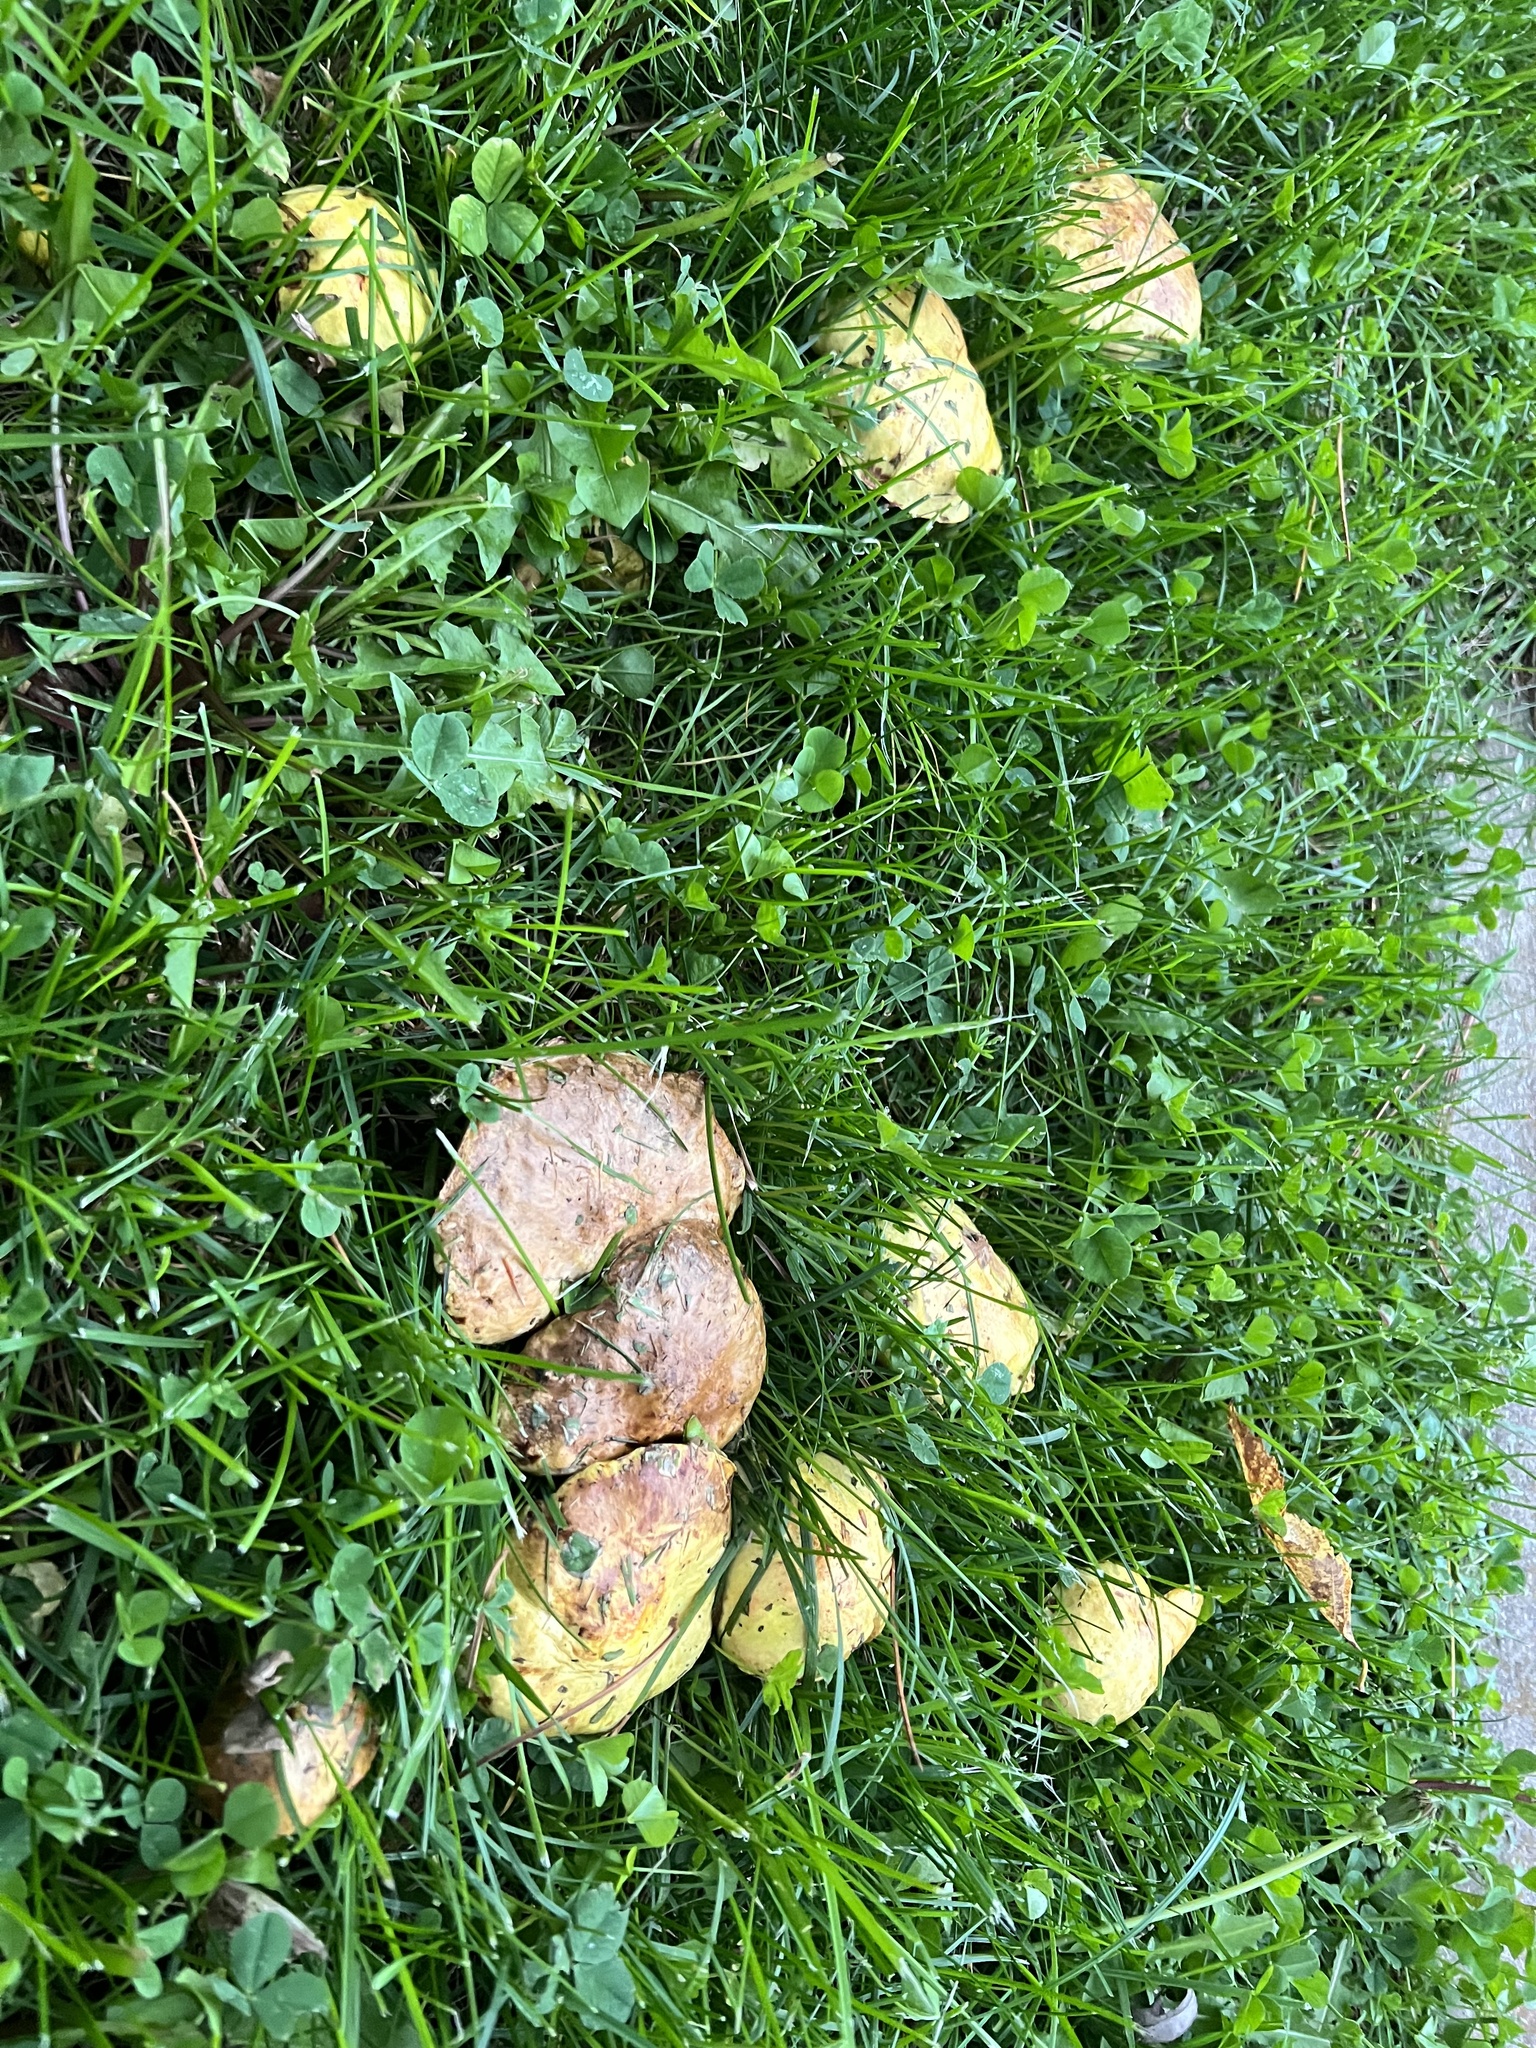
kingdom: Fungi
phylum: Basidiomycota
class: Agaricomycetes
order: Boletales
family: Suillaceae
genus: Suillus
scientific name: Suillus americanus
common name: Chicken fat mushroom
